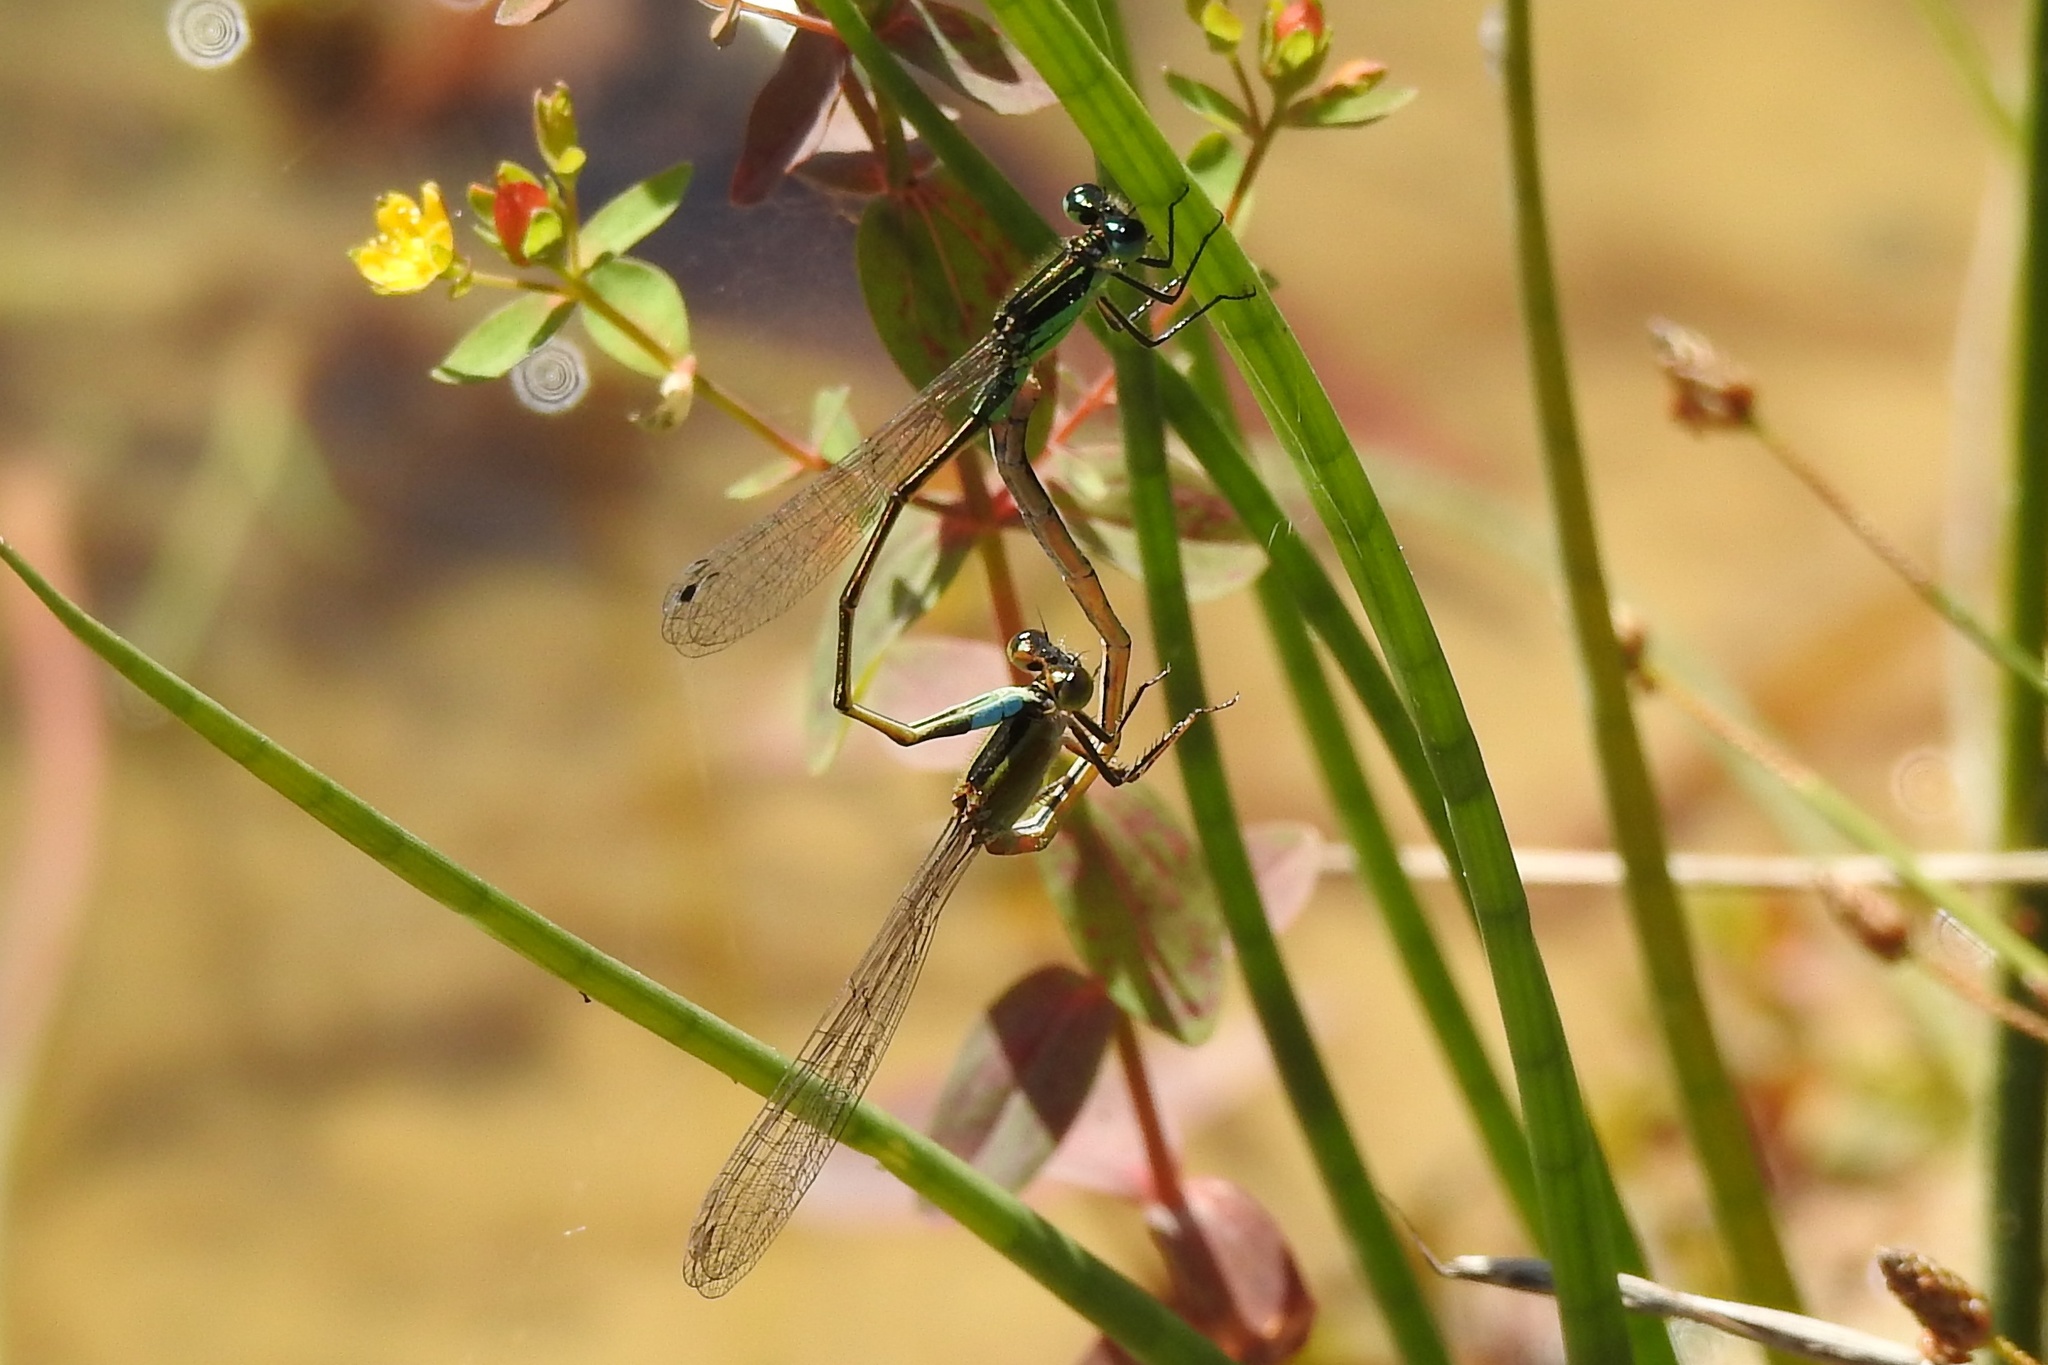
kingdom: Animalia
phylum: Arthropoda
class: Insecta
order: Odonata
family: Coenagrionidae
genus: Ischnura
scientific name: Ischnura ramburii
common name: Rambur's forktail
